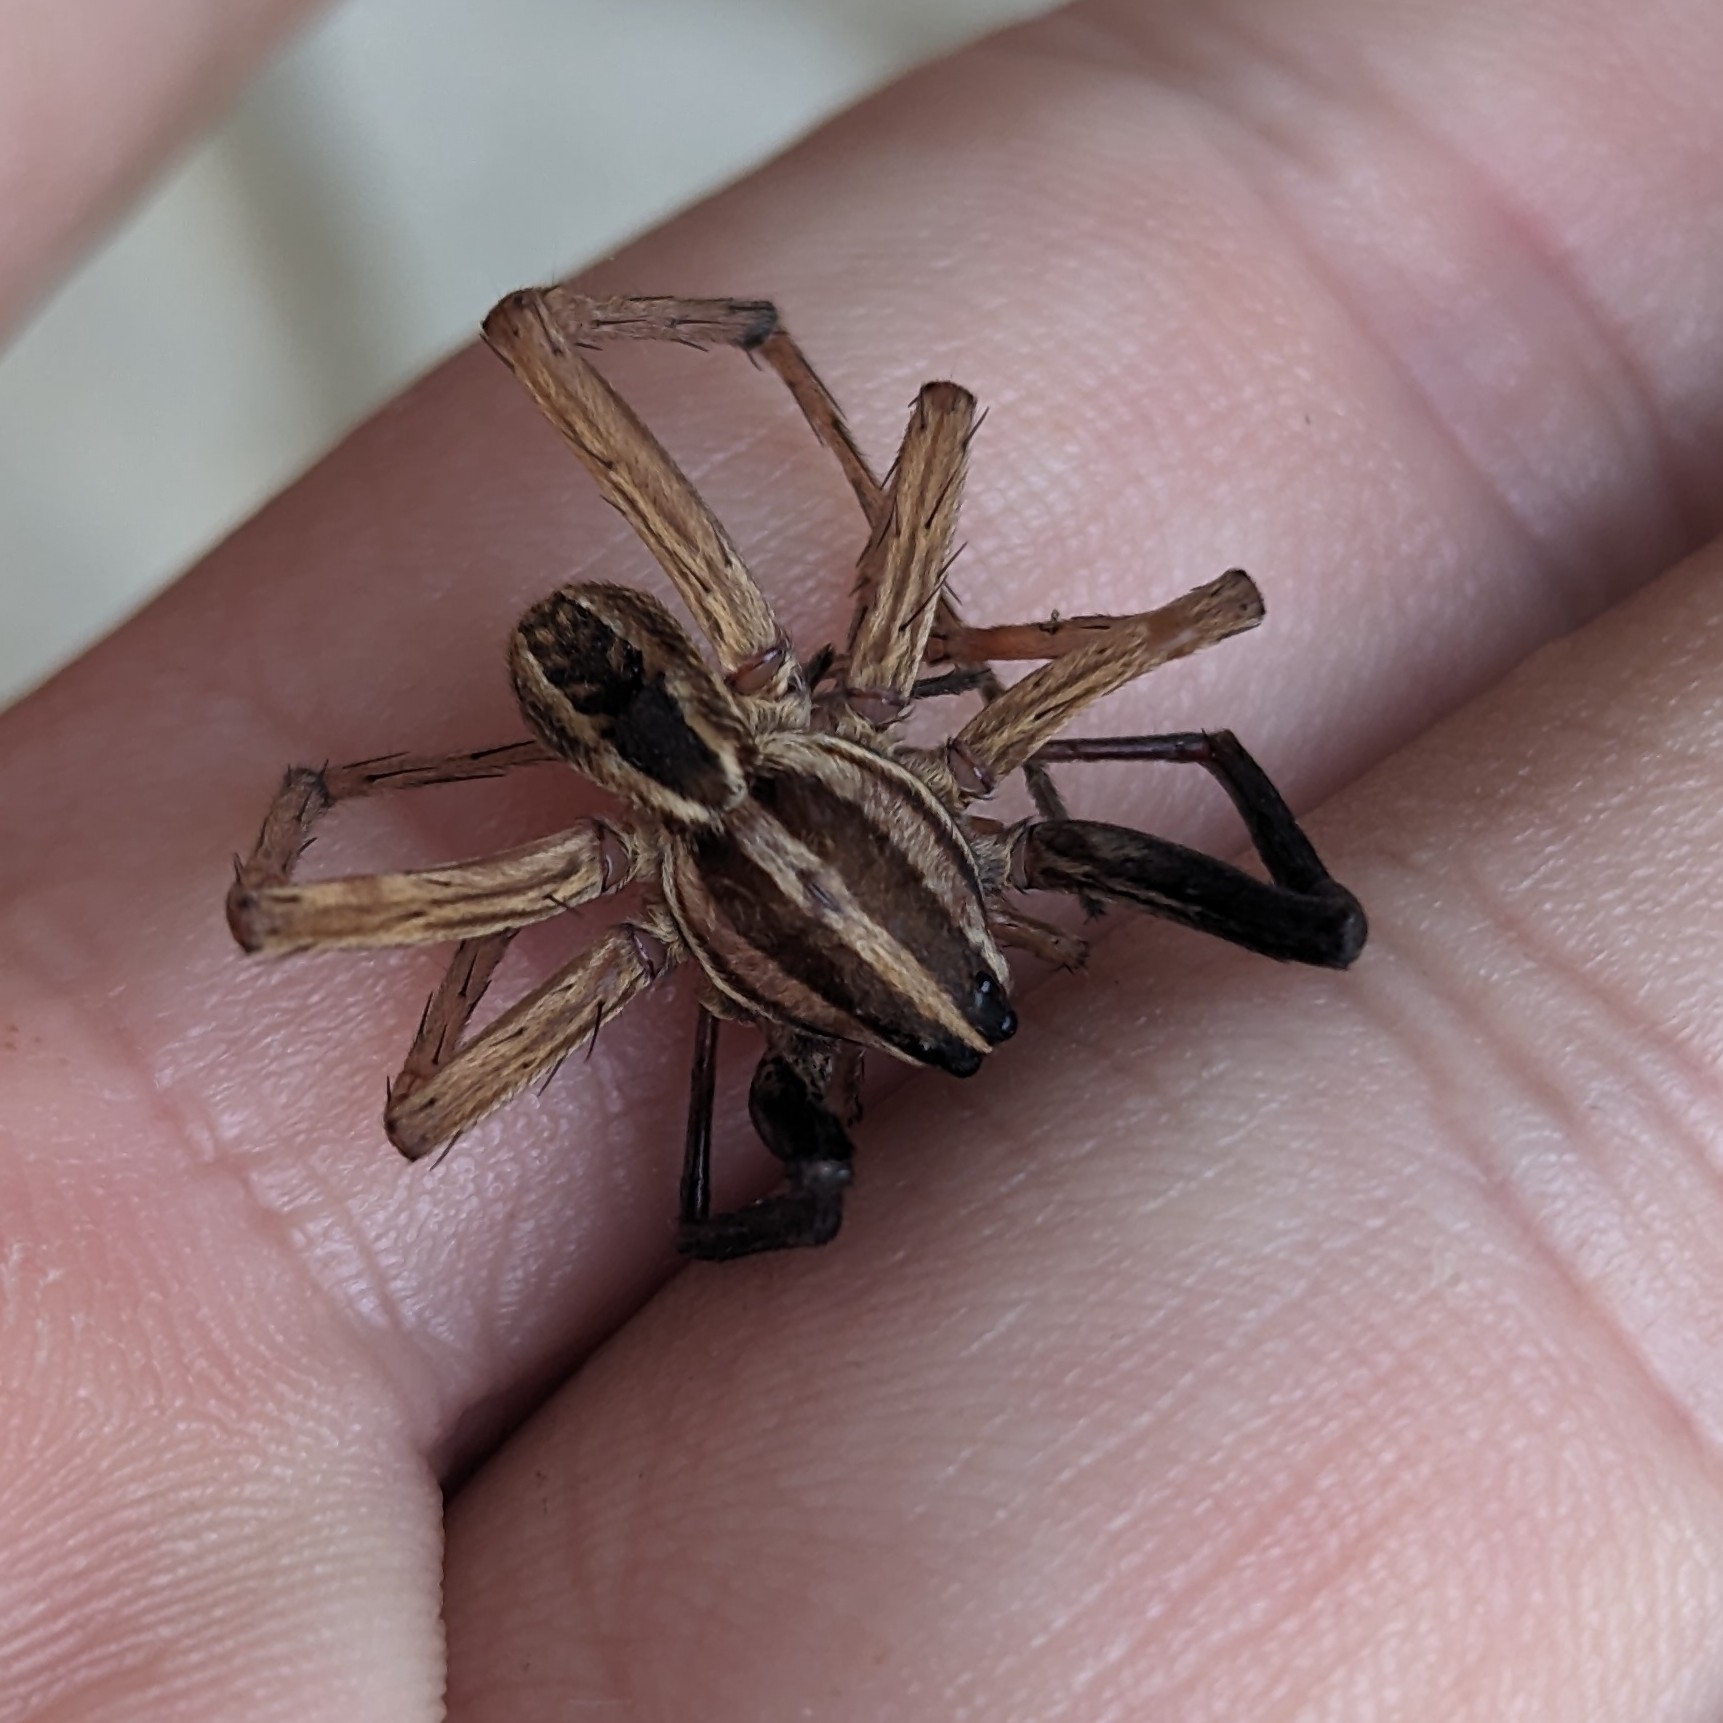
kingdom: Animalia
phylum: Arthropoda
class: Arachnida
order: Araneae
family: Lycosidae
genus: Rabidosa
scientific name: Rabidosa rabida
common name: Rabid wolf spider
